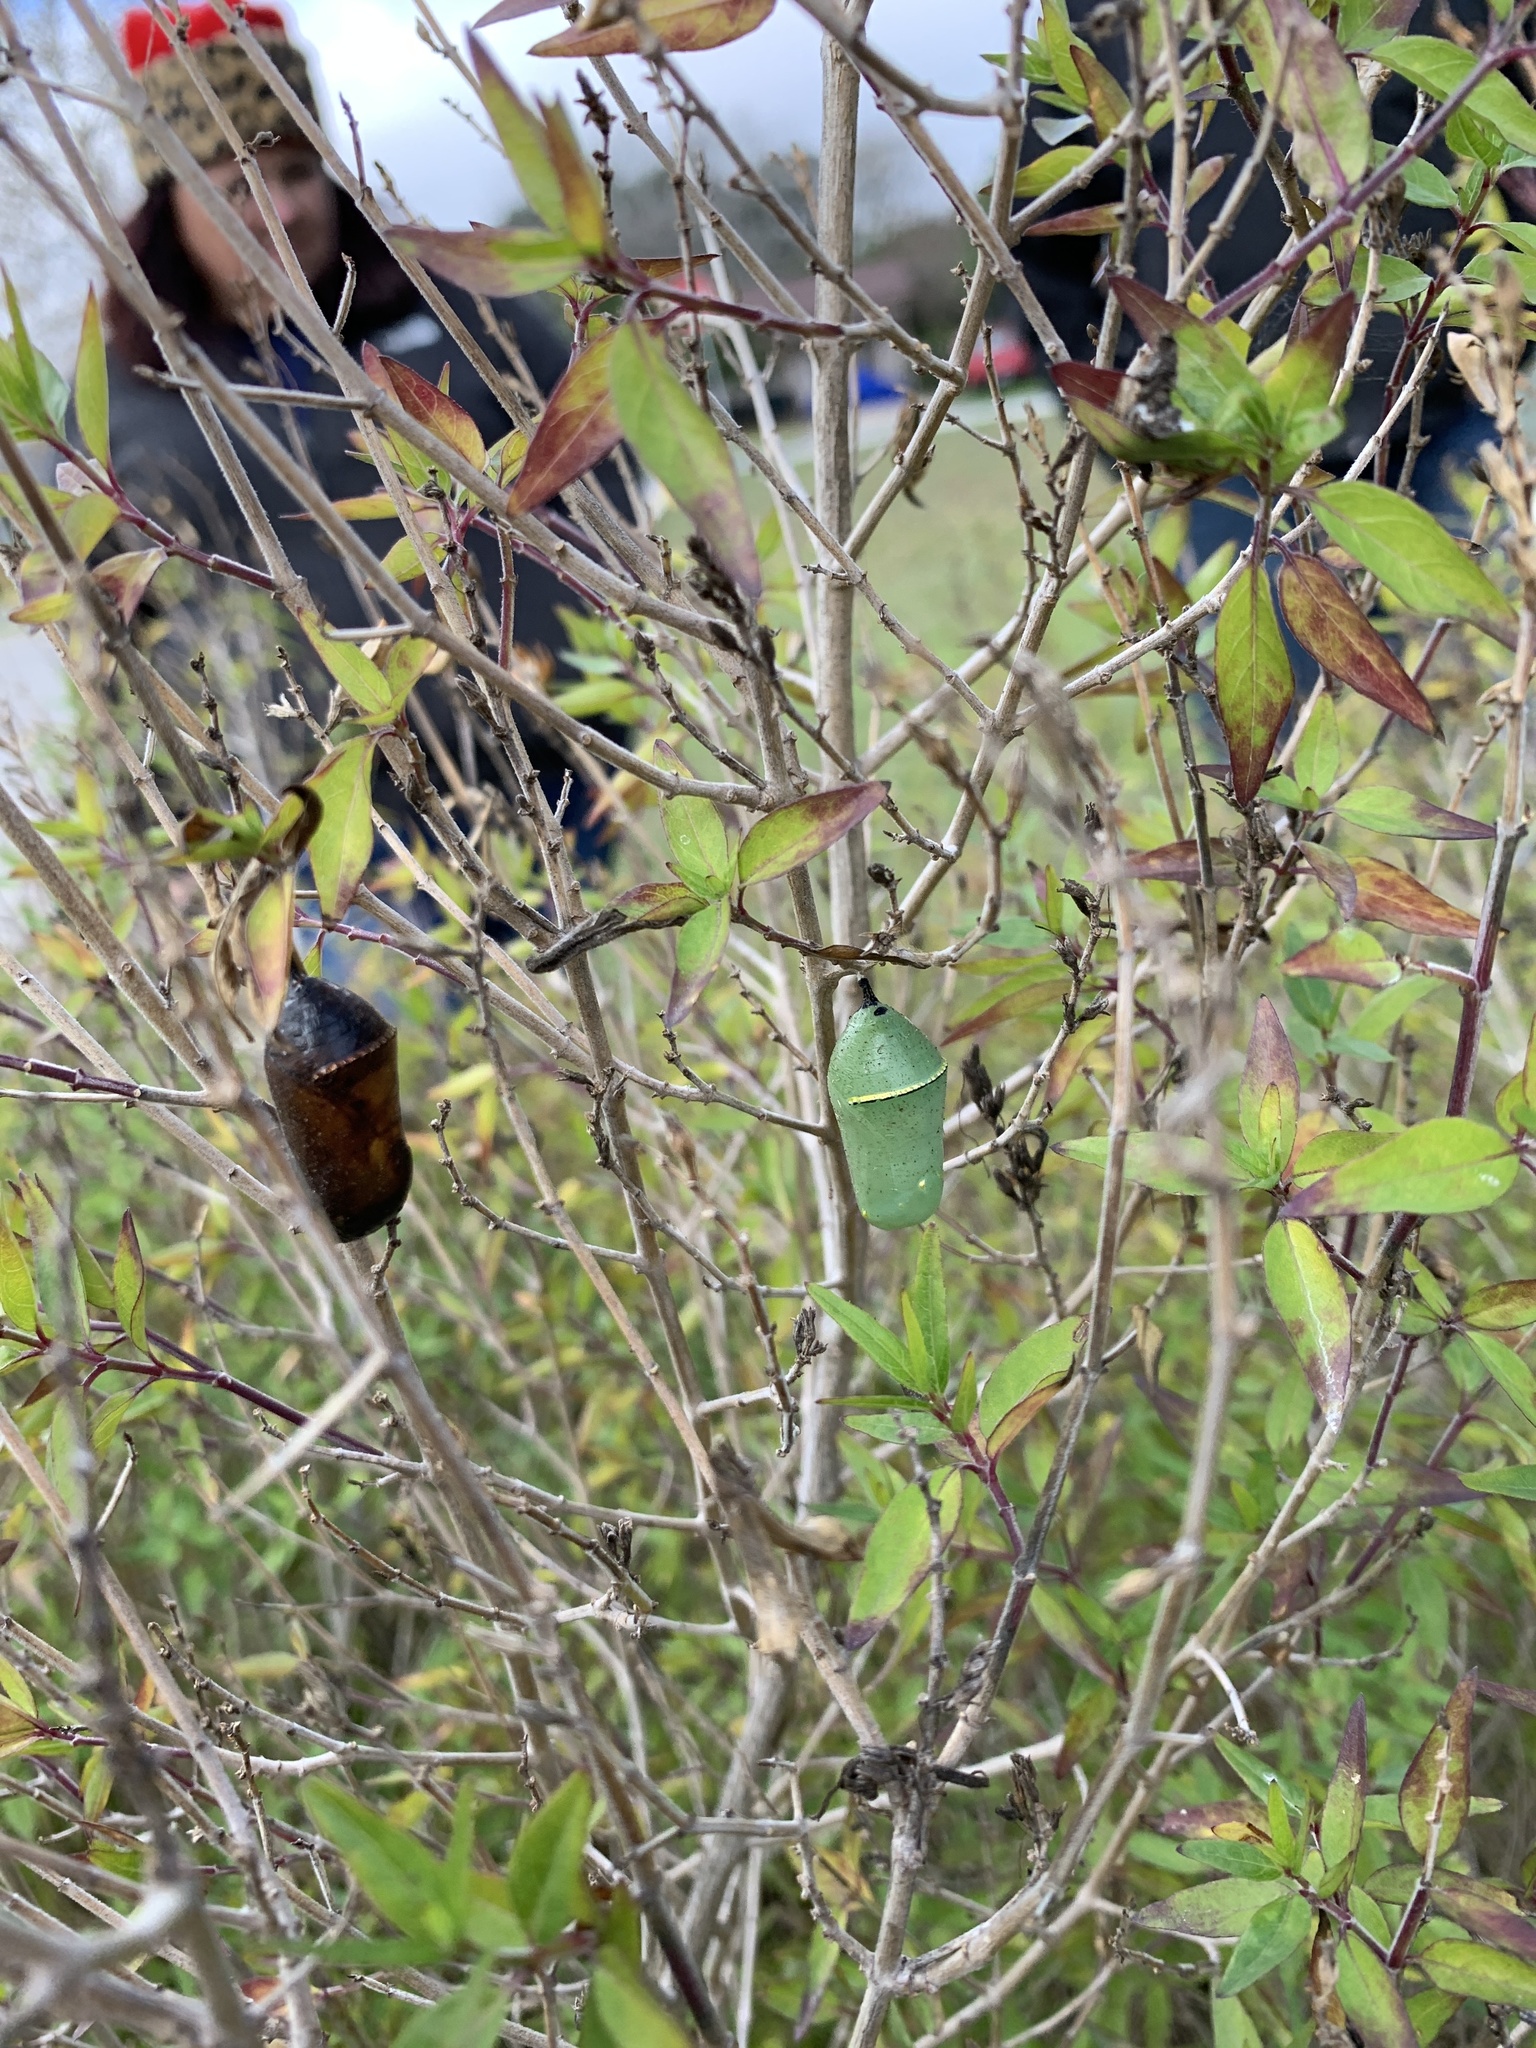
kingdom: Animalia
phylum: Arthropoda
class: Insecta
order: Lepidoptera
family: Nymphalidae
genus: Danaus
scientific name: Danaus plexippus
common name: Monarch
